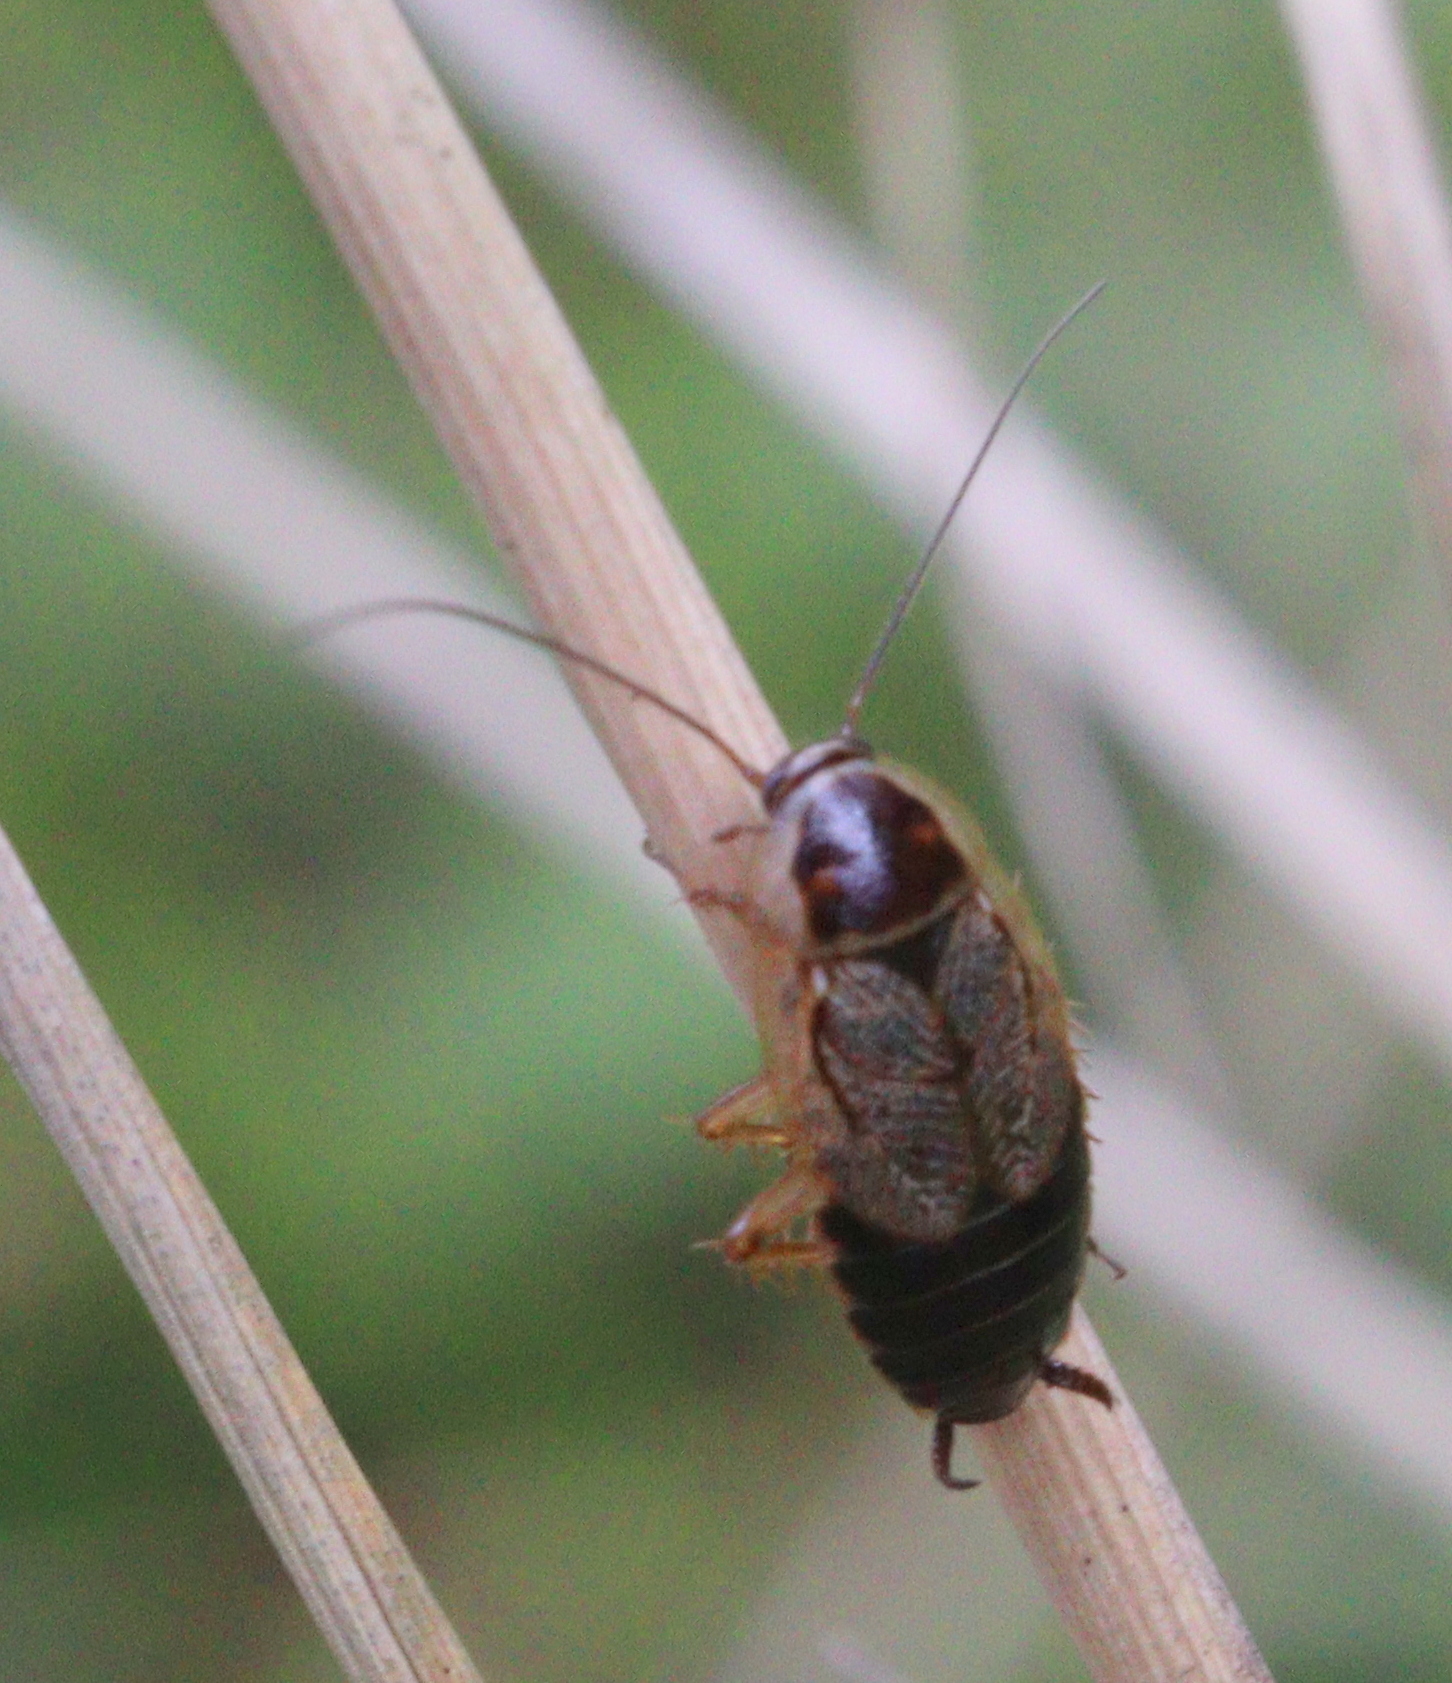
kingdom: Animalia
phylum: Arthropoda
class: Insecta
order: Blattodea
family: Ectobiidae
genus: Ectobius
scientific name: Ectobius sylvestris
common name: Forest cockroach
